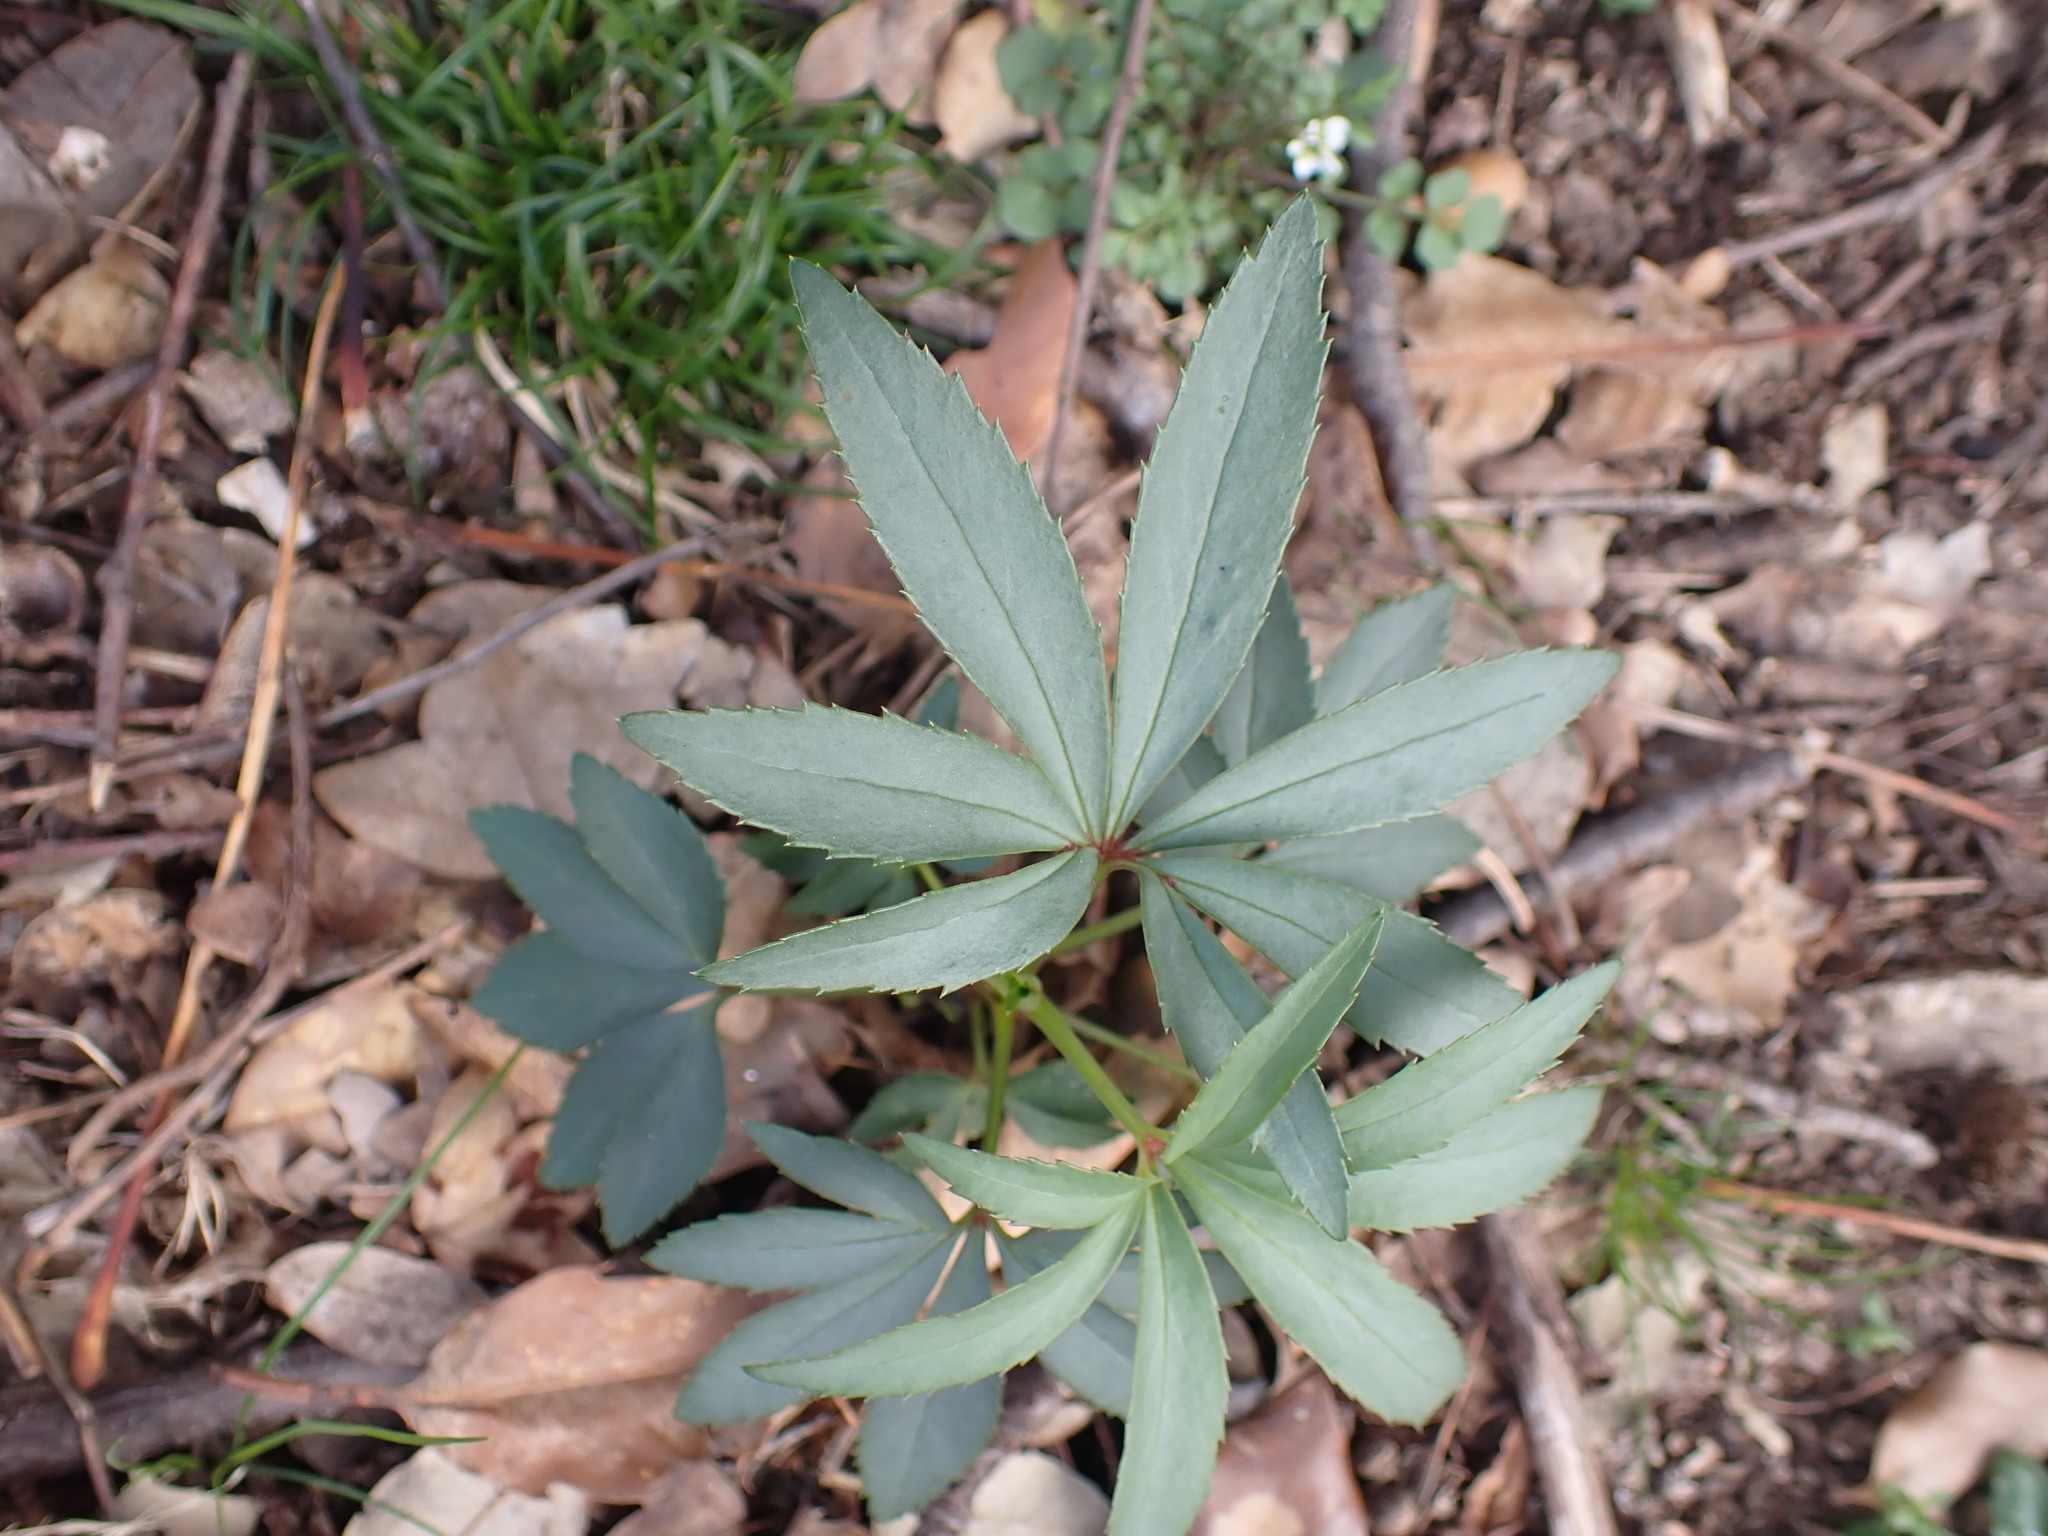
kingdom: Plantae
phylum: Tracheophyta
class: Magnoliopsida
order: Ranunculales
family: Ranunculaceae
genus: Helleborus
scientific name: Helleborus foetidus
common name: Stinking hellebore
